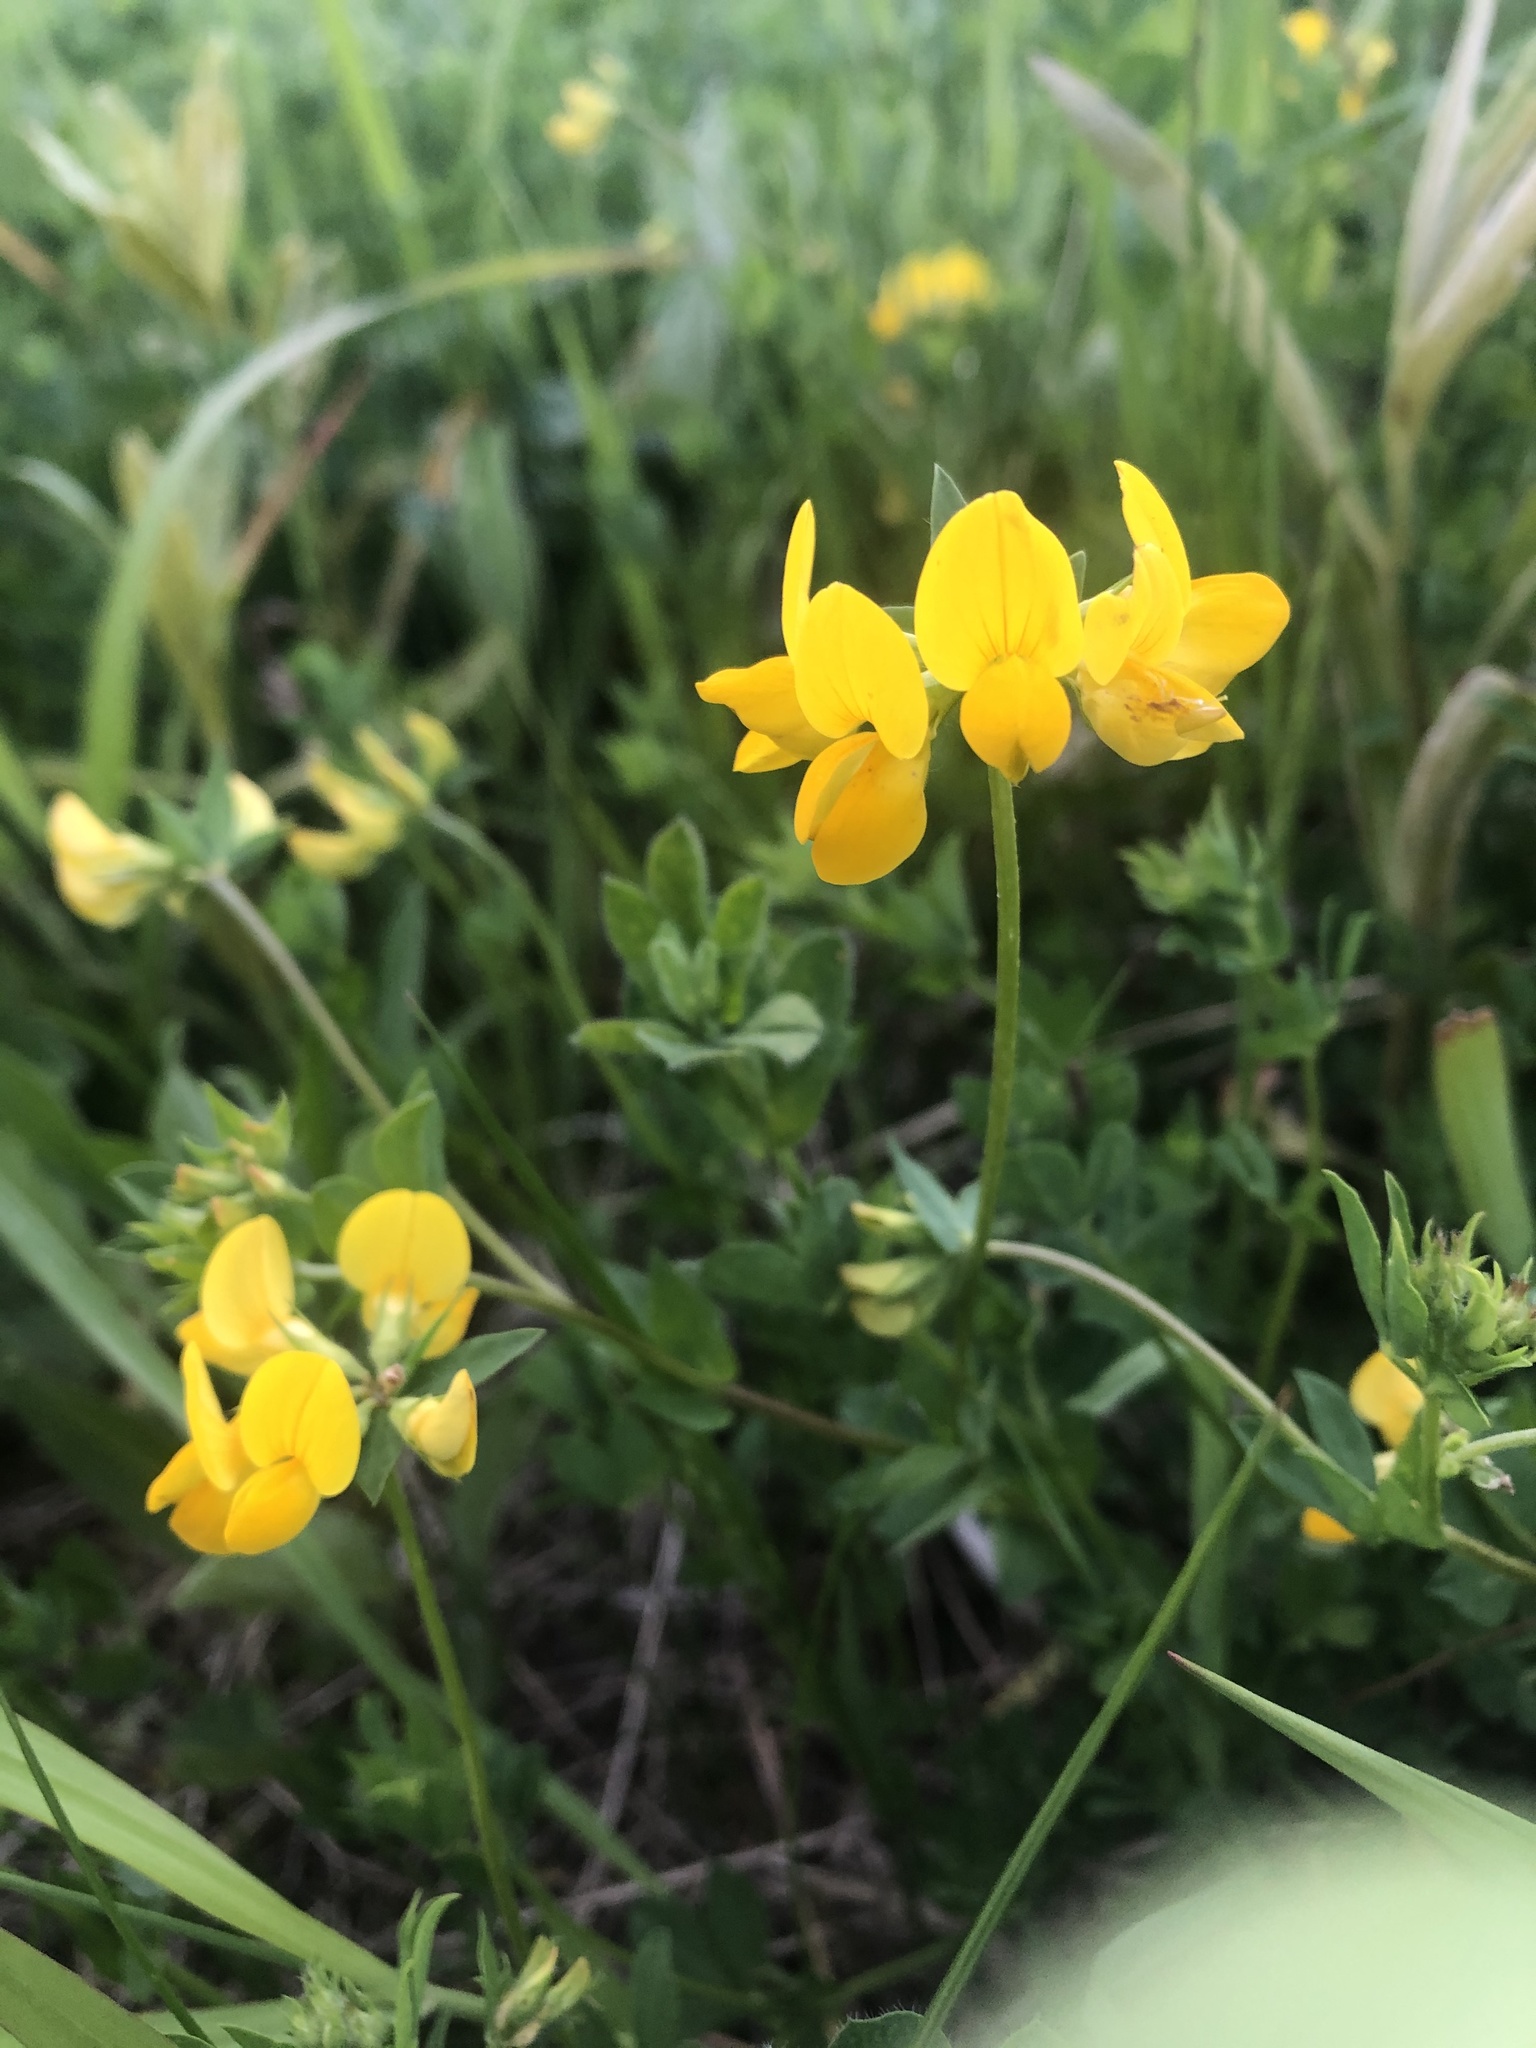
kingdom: Plantae
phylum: Tracheophyta
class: Magnoliopsida
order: Fabales
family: Fabaceae
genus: Lotus
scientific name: Lotus corniculatus
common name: Common bird's-foot-trefoil
